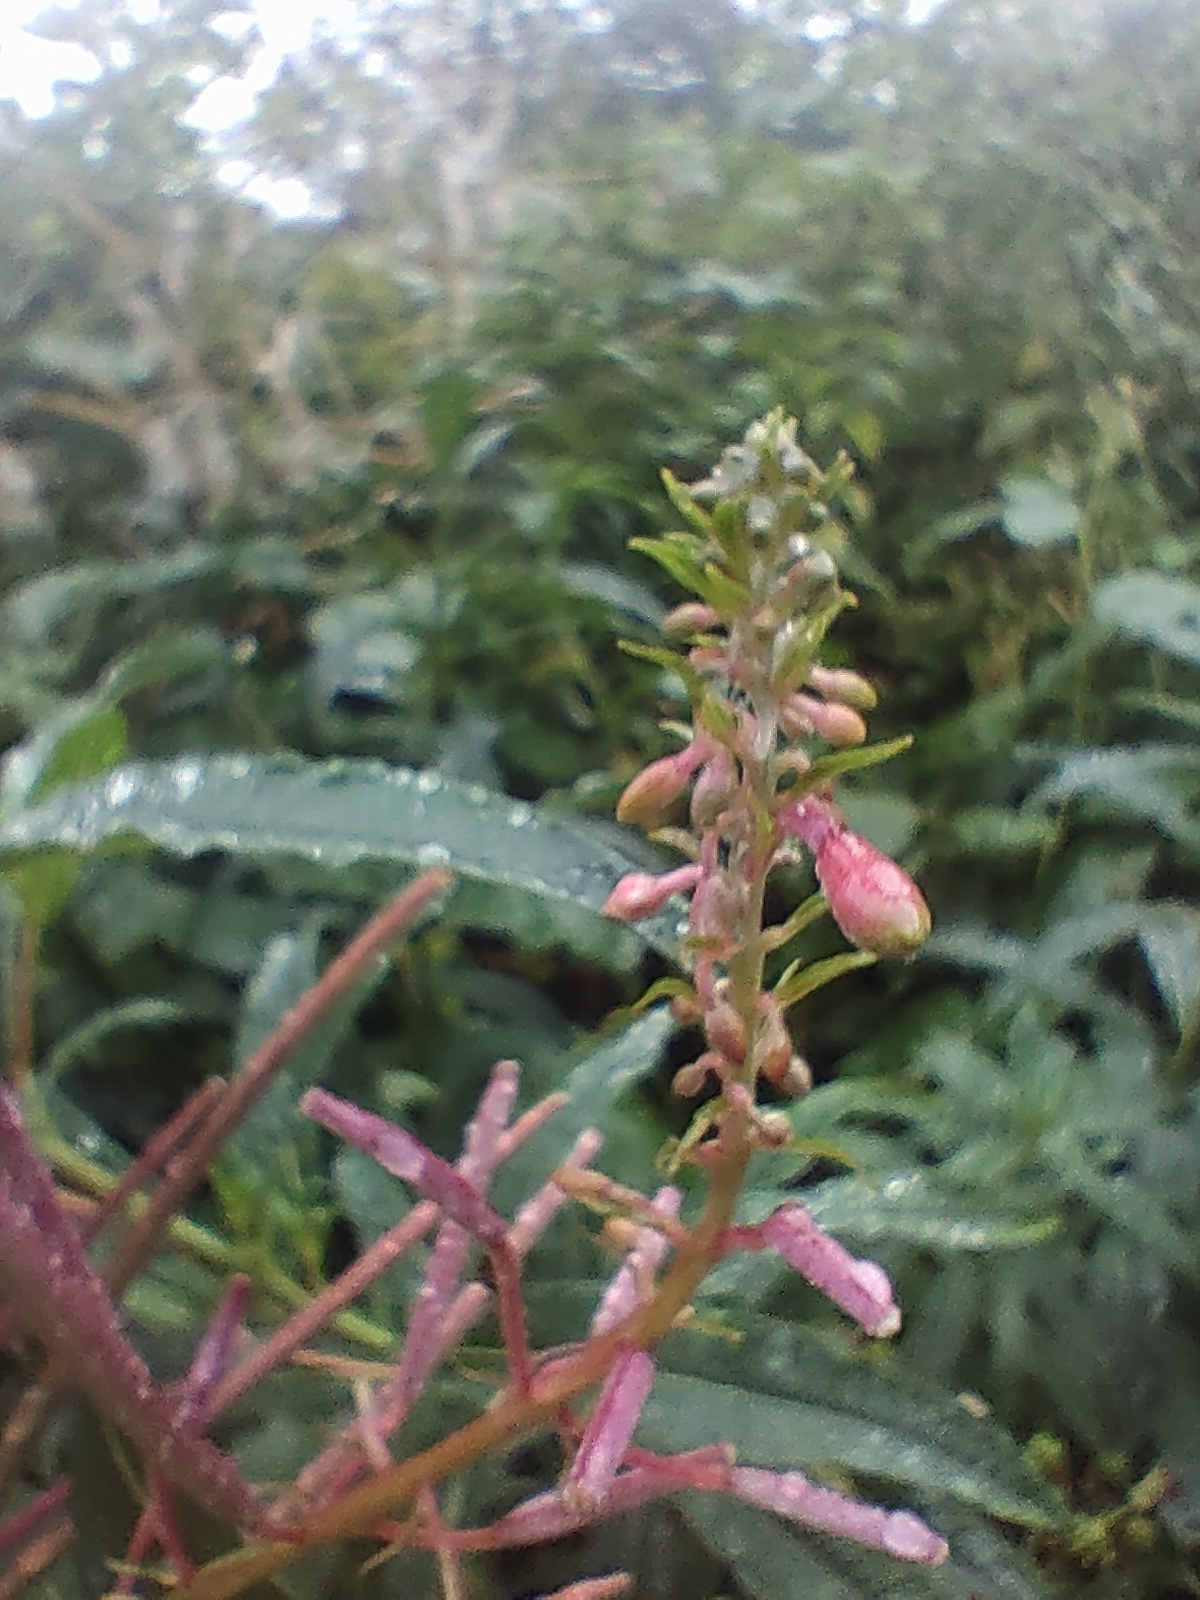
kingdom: Plantae
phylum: Tracheophyta
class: Magnoliopsida
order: Myrtales
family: Onagraceae
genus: Chamaenerion
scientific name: Chamaenerion angustifolium
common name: Fireweed
